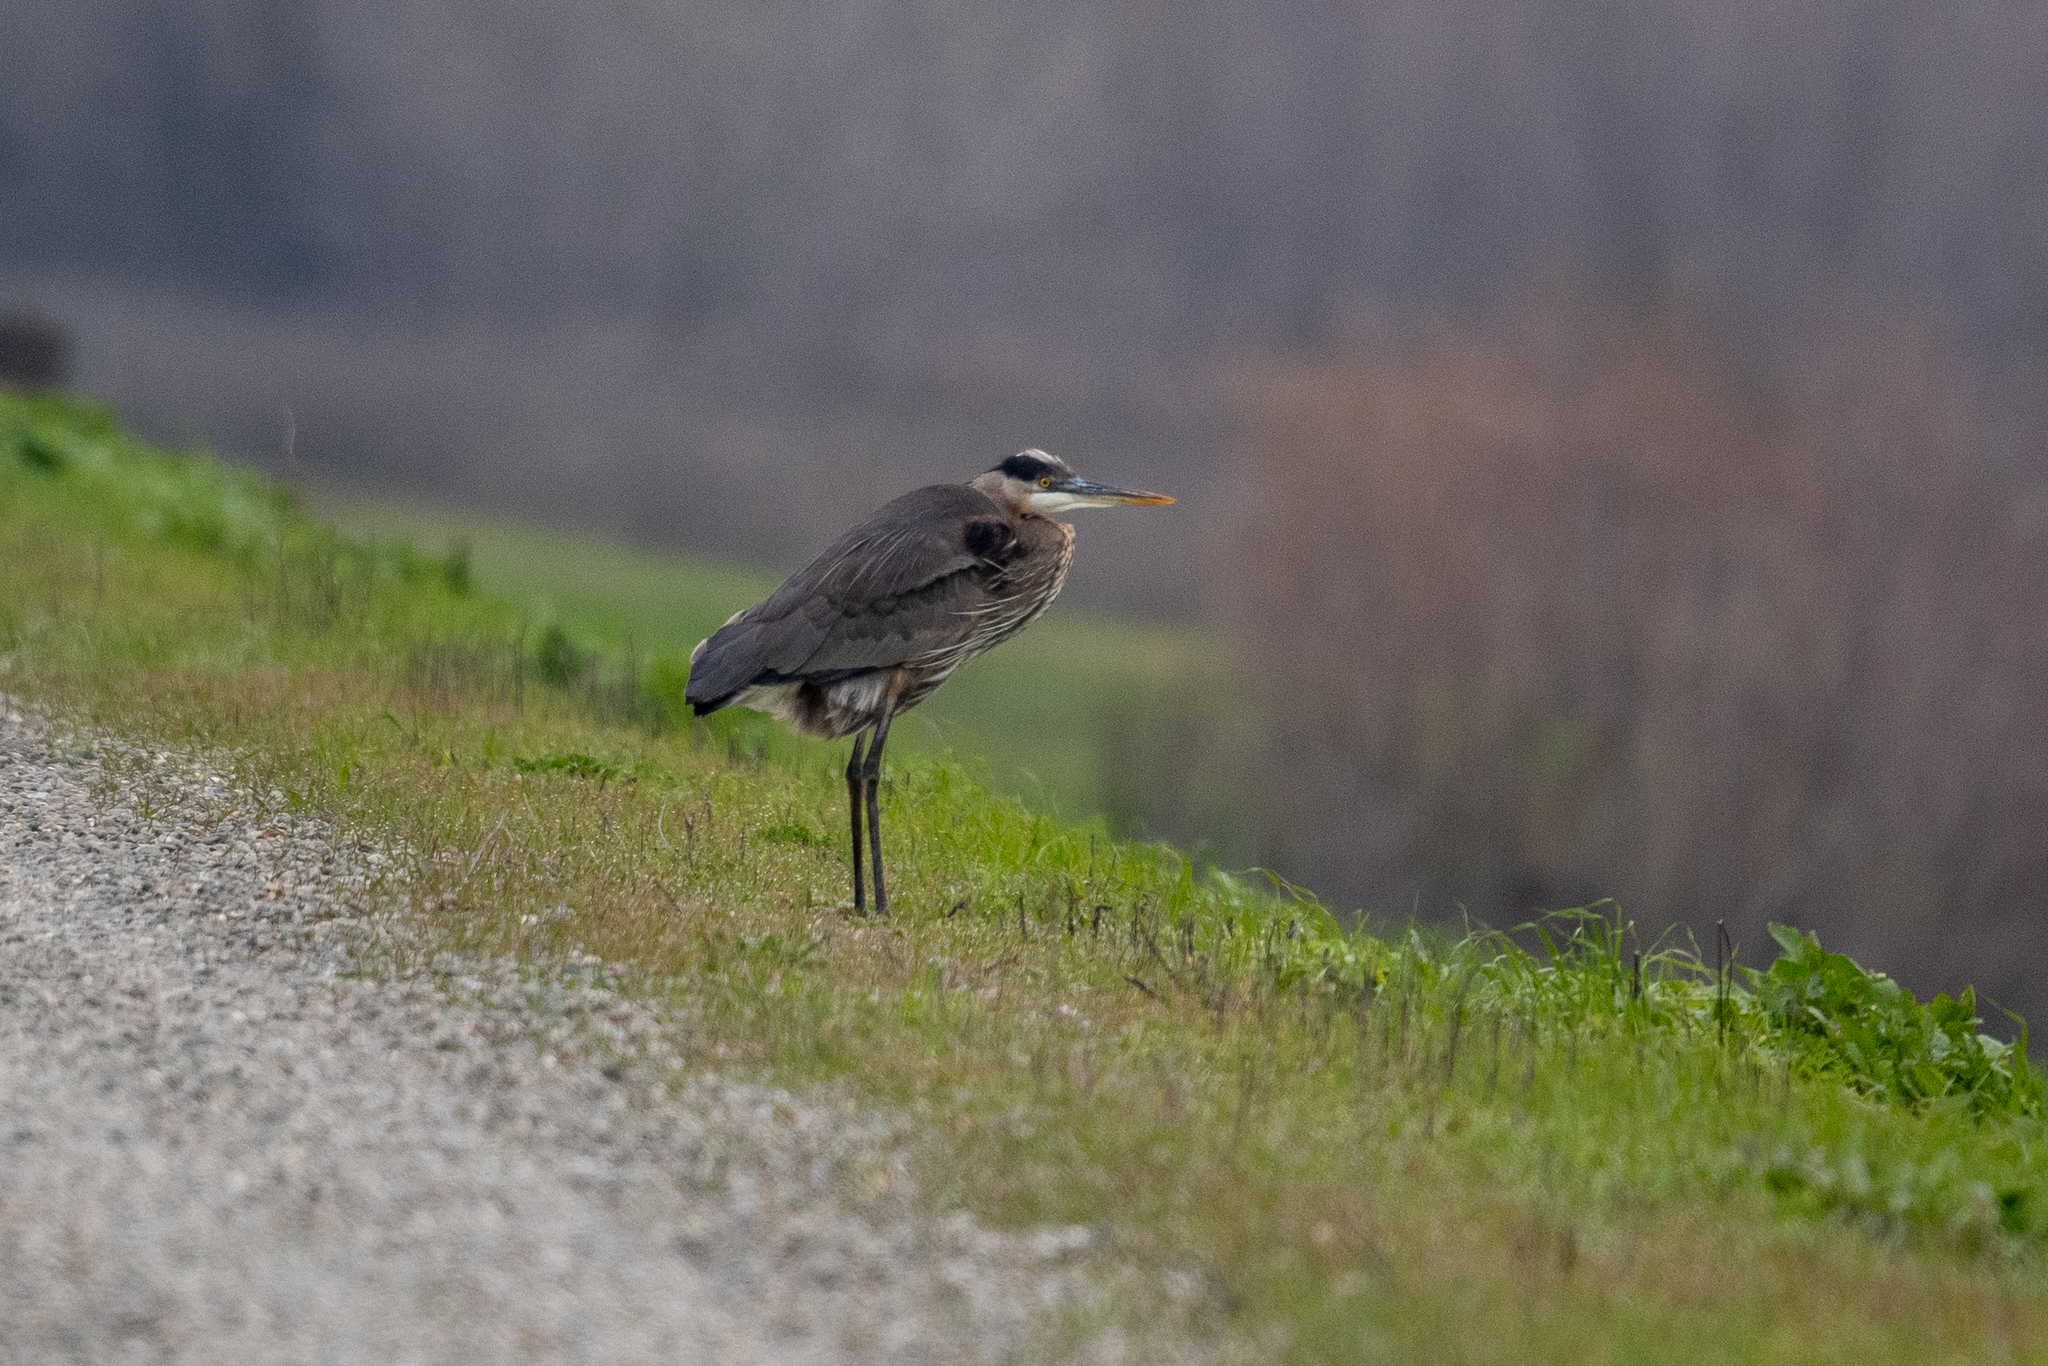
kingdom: Animalia
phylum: Chordata
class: Aves
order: Pelecaniformes
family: Ardeidae
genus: Ardea
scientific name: Ardea herodias
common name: Great blue heron
